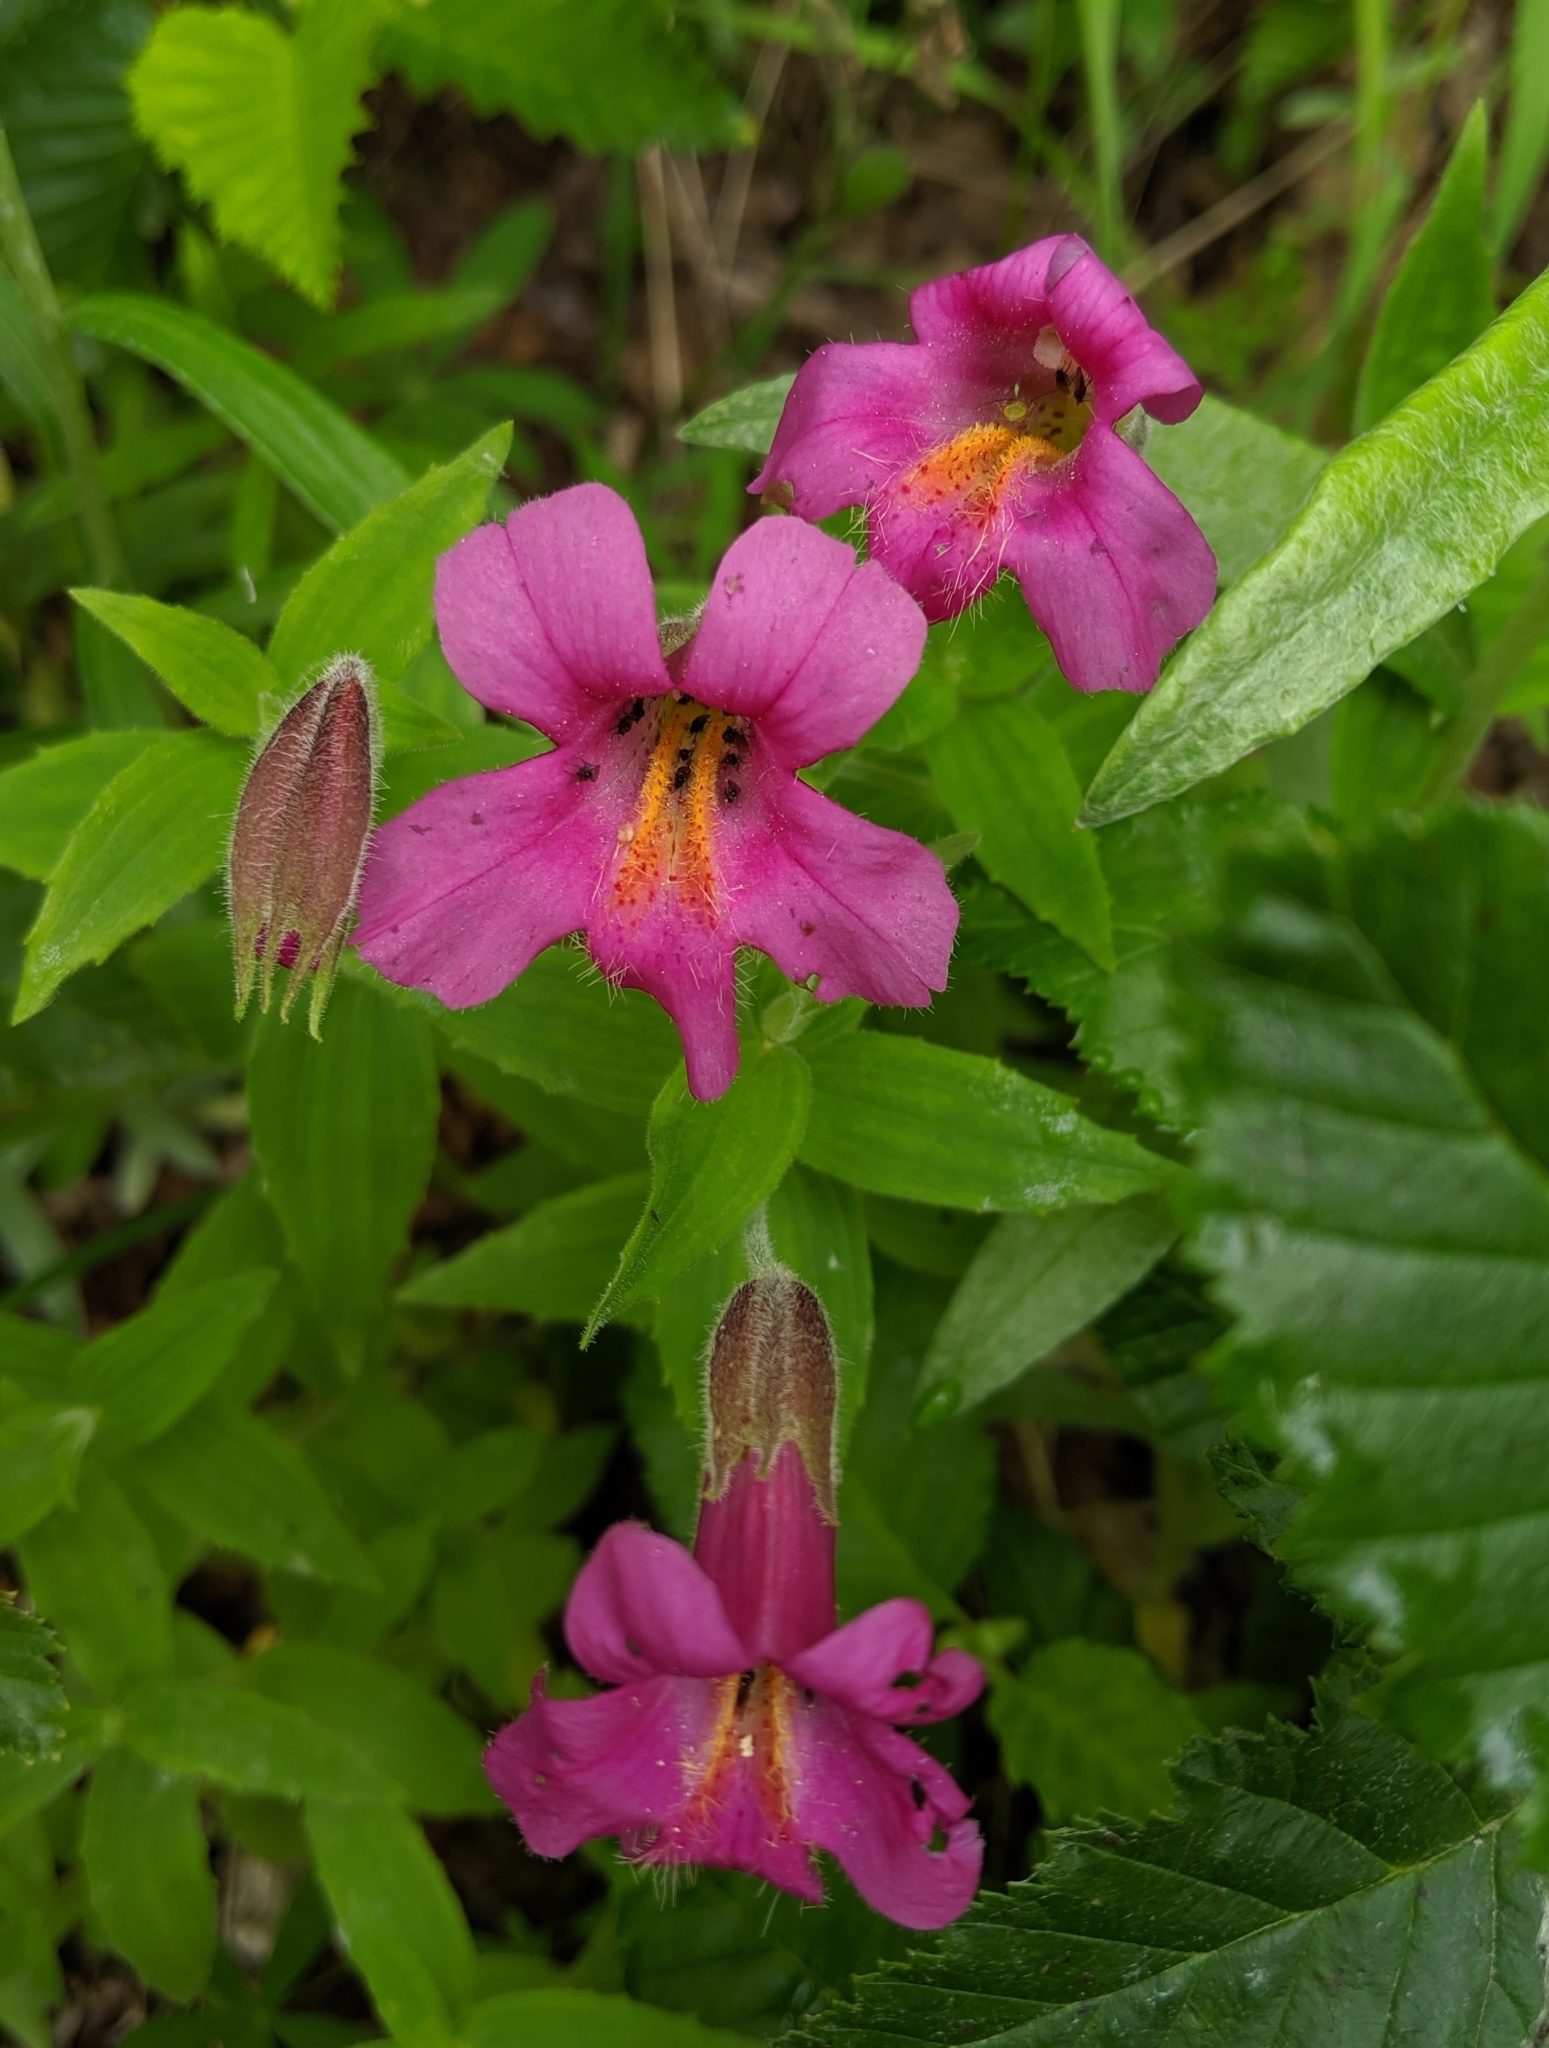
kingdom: Plantae
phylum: Tracheophyta
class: Magnoliopsida
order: Lamiales
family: Phrymaceae
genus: Erythranthe
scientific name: Erythranthe lewisii
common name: Lewis's monkey-flower
